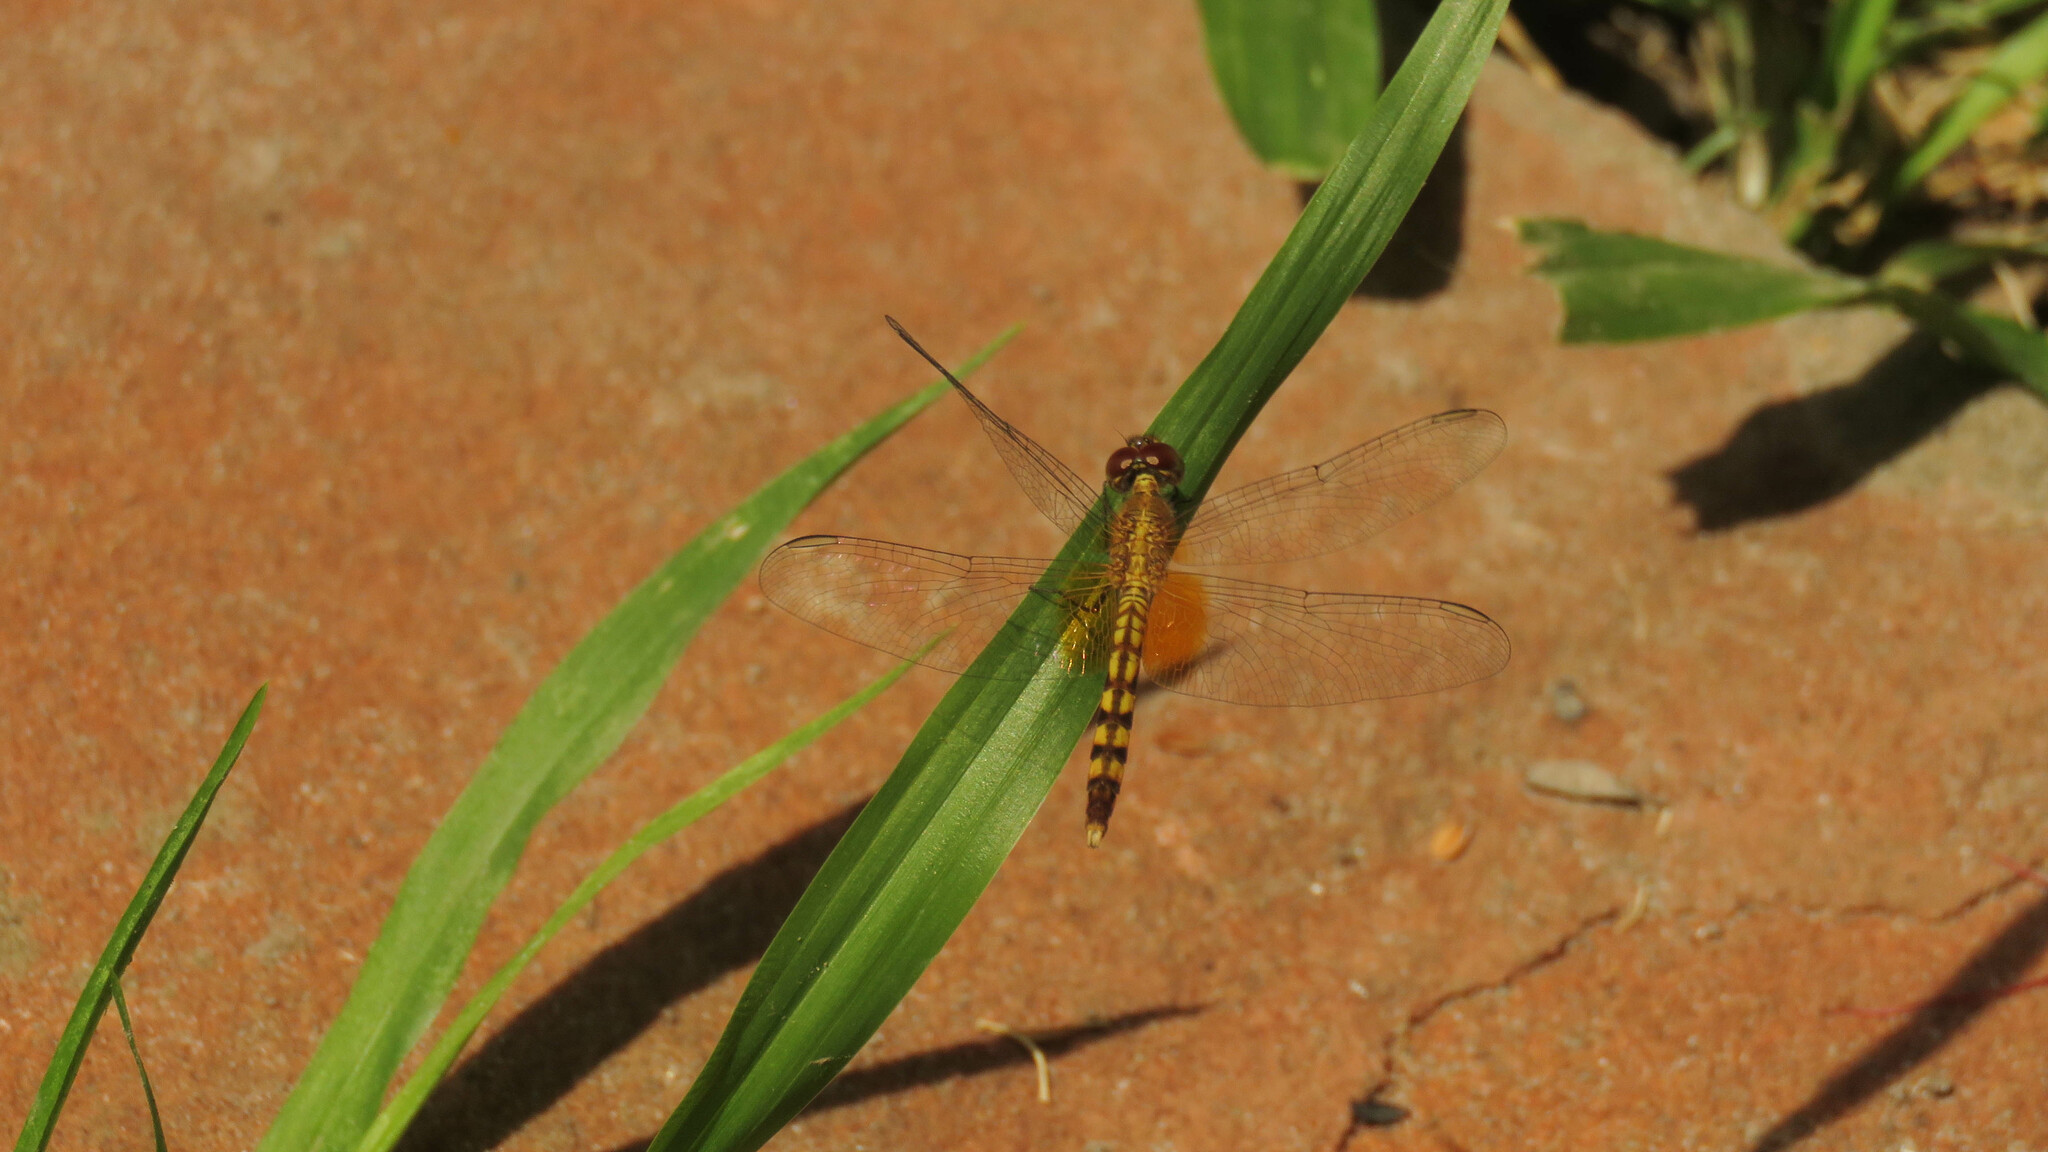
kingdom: Animalia
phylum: Arthropoda
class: Insecta
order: Odonata
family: Libellulidae
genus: Erythrodiplax
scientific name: Erythrodiplax ochracea
